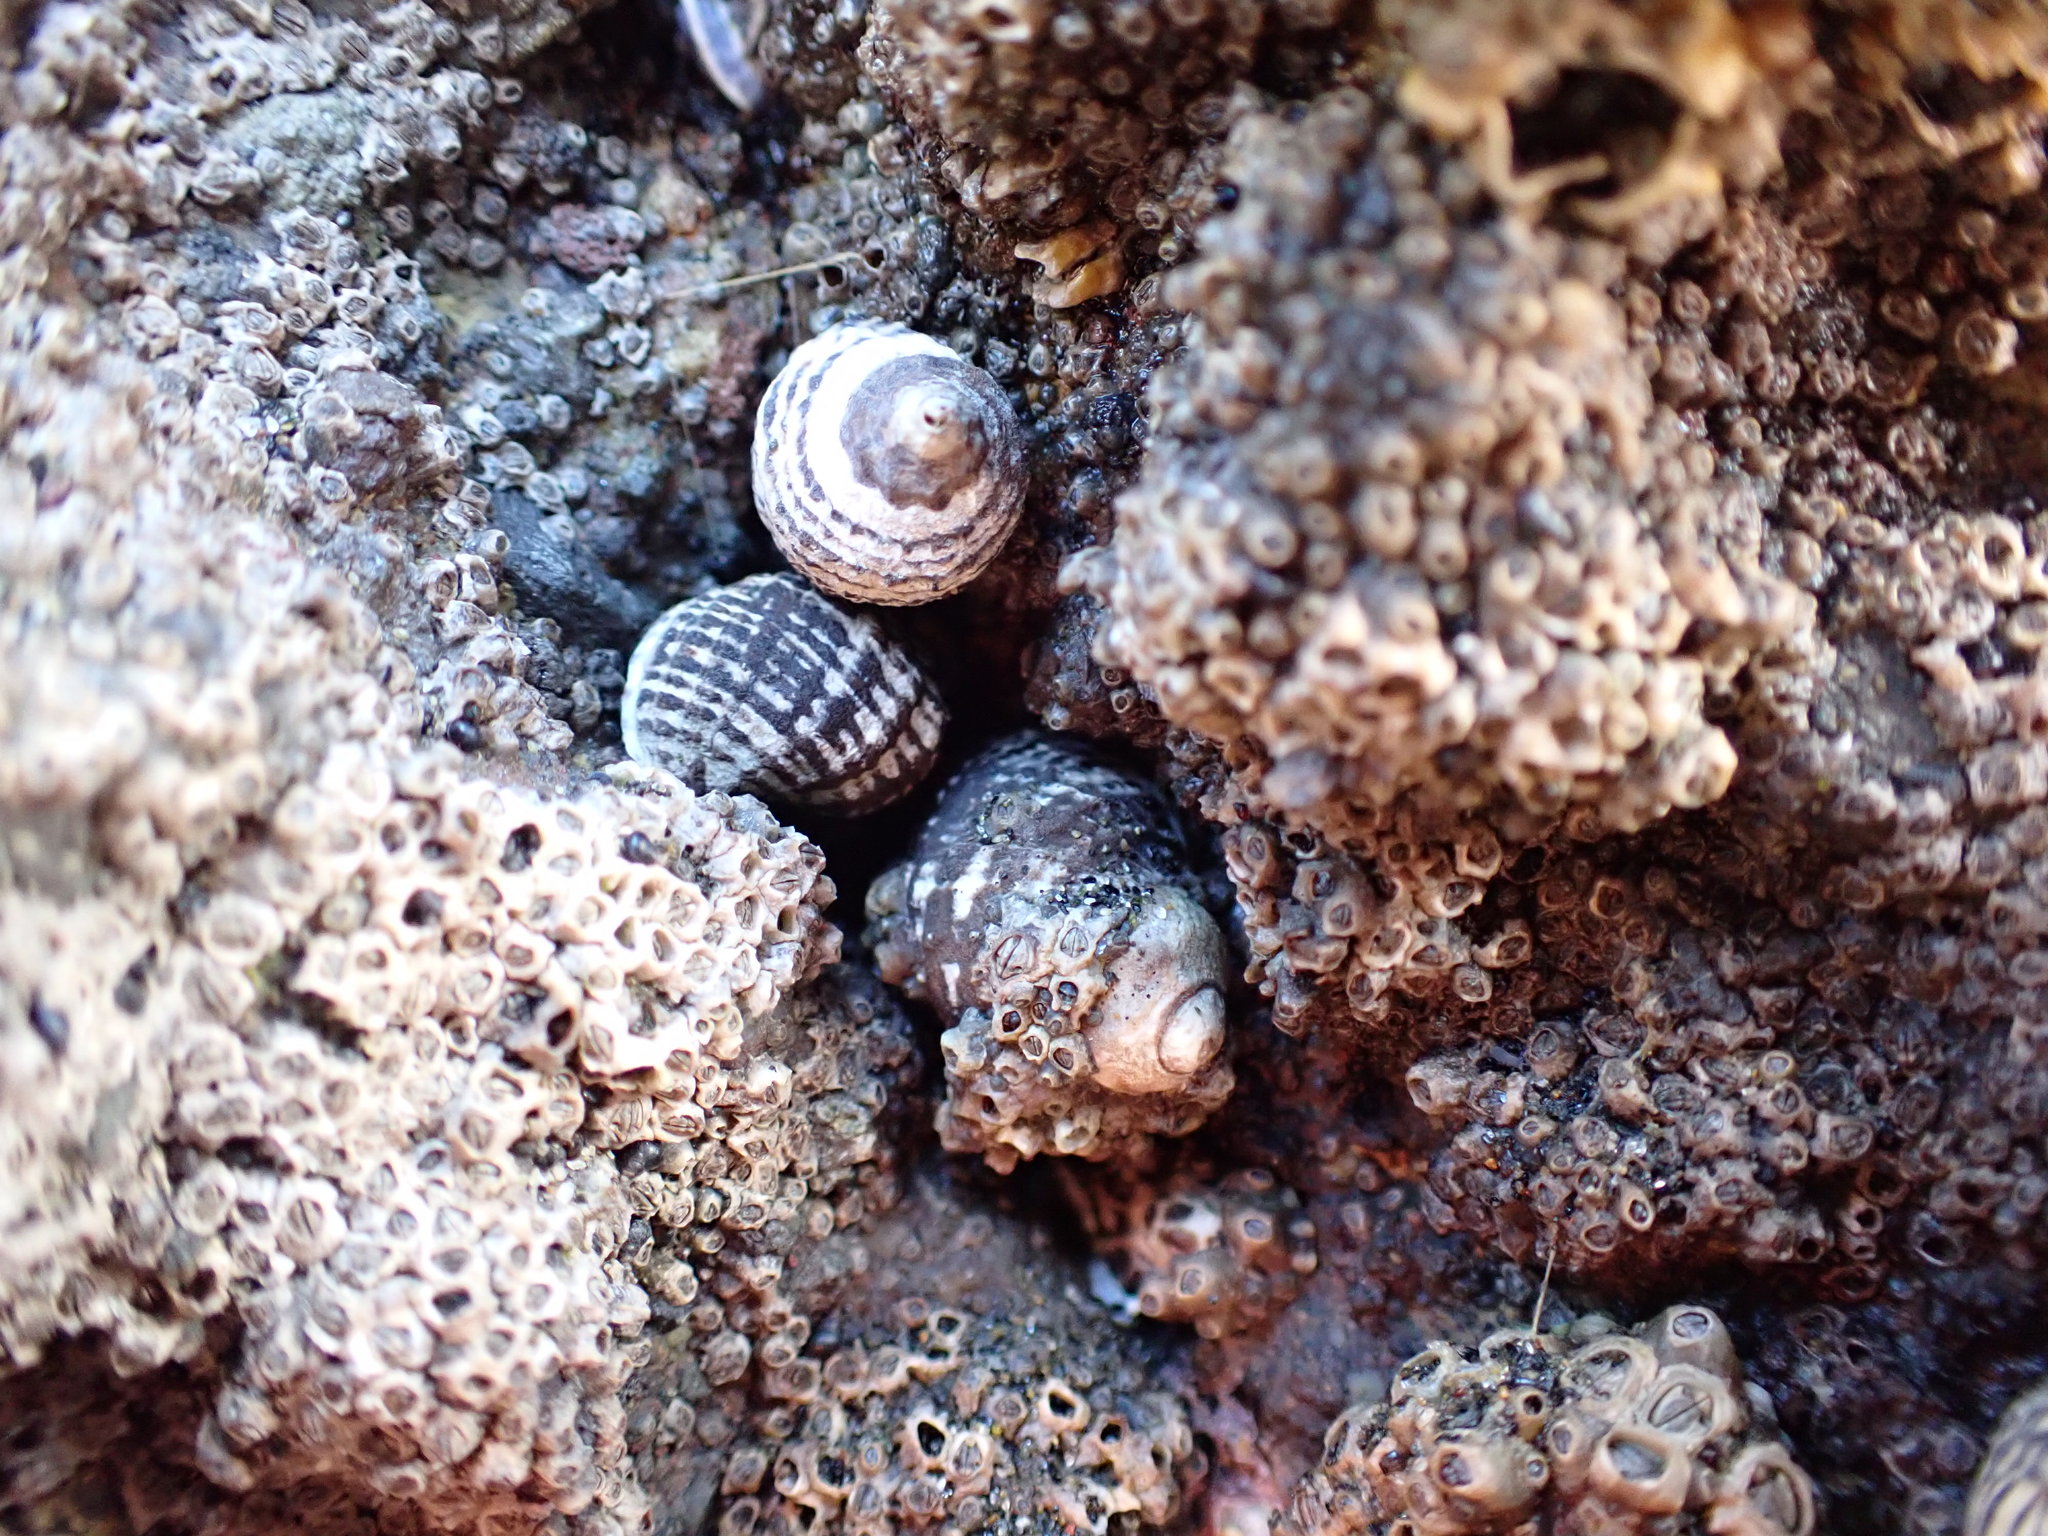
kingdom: Animalia
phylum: Mollusca
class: Gastropoda
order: Neogastropoda
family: Muricidae
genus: Haustrum
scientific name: Haustrum albomarginatum
